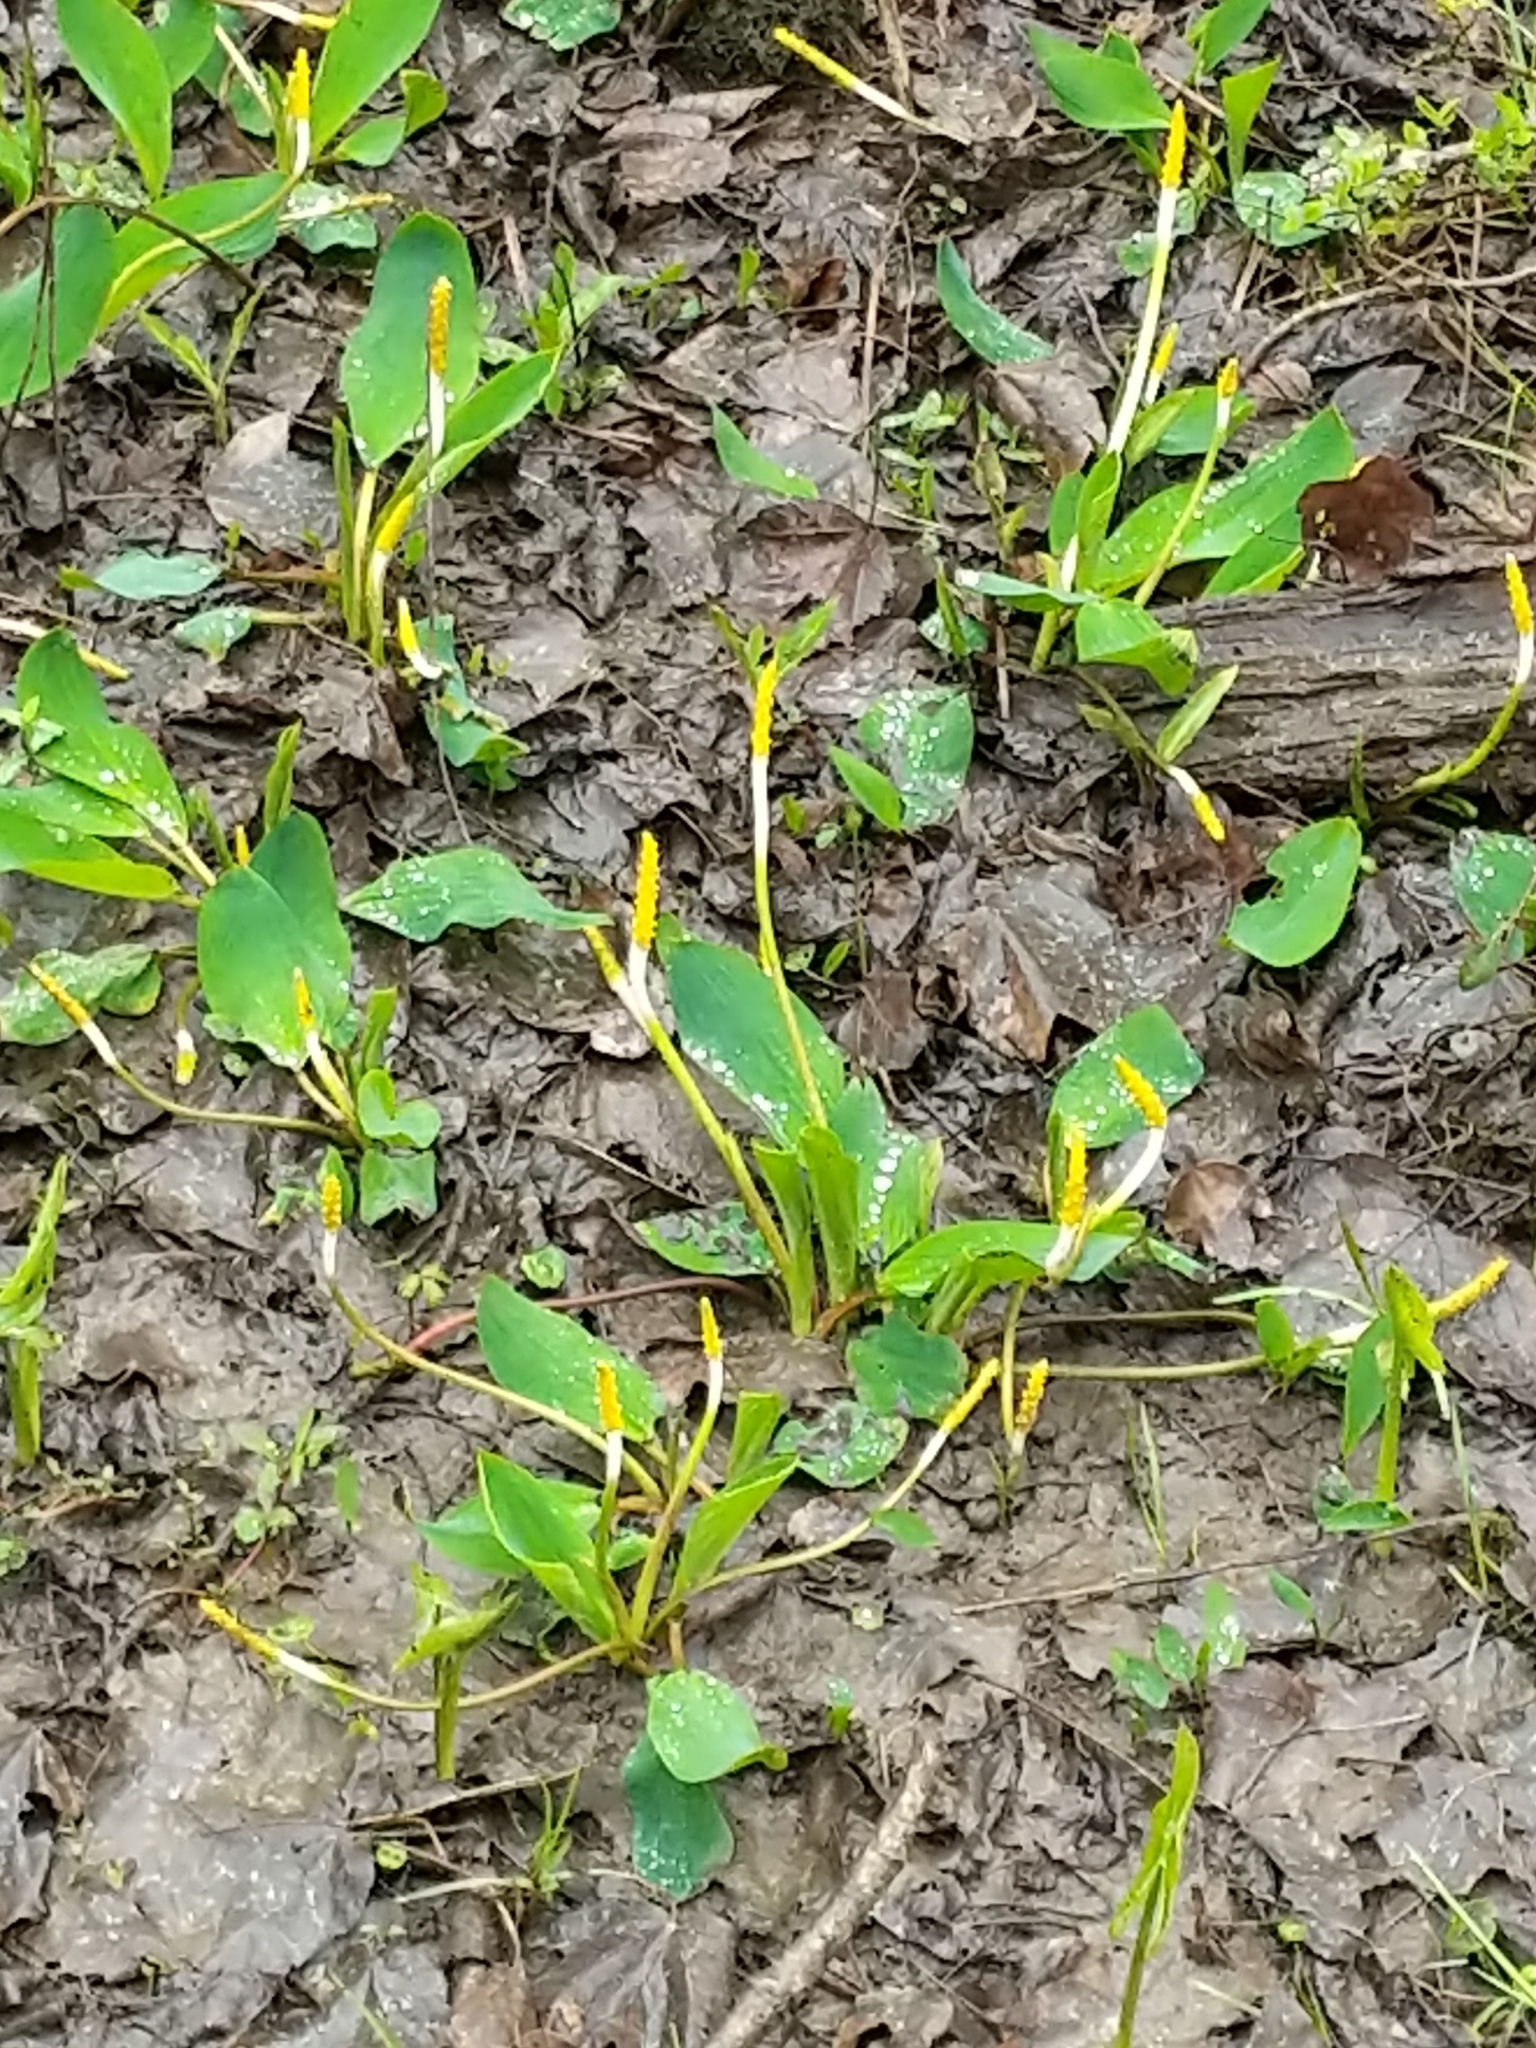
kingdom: Plantae
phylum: Tracheophyta
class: Liliopsida
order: Alismatales
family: Araceae
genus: Orontium
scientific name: Orontium aquaticum
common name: Golden-club
